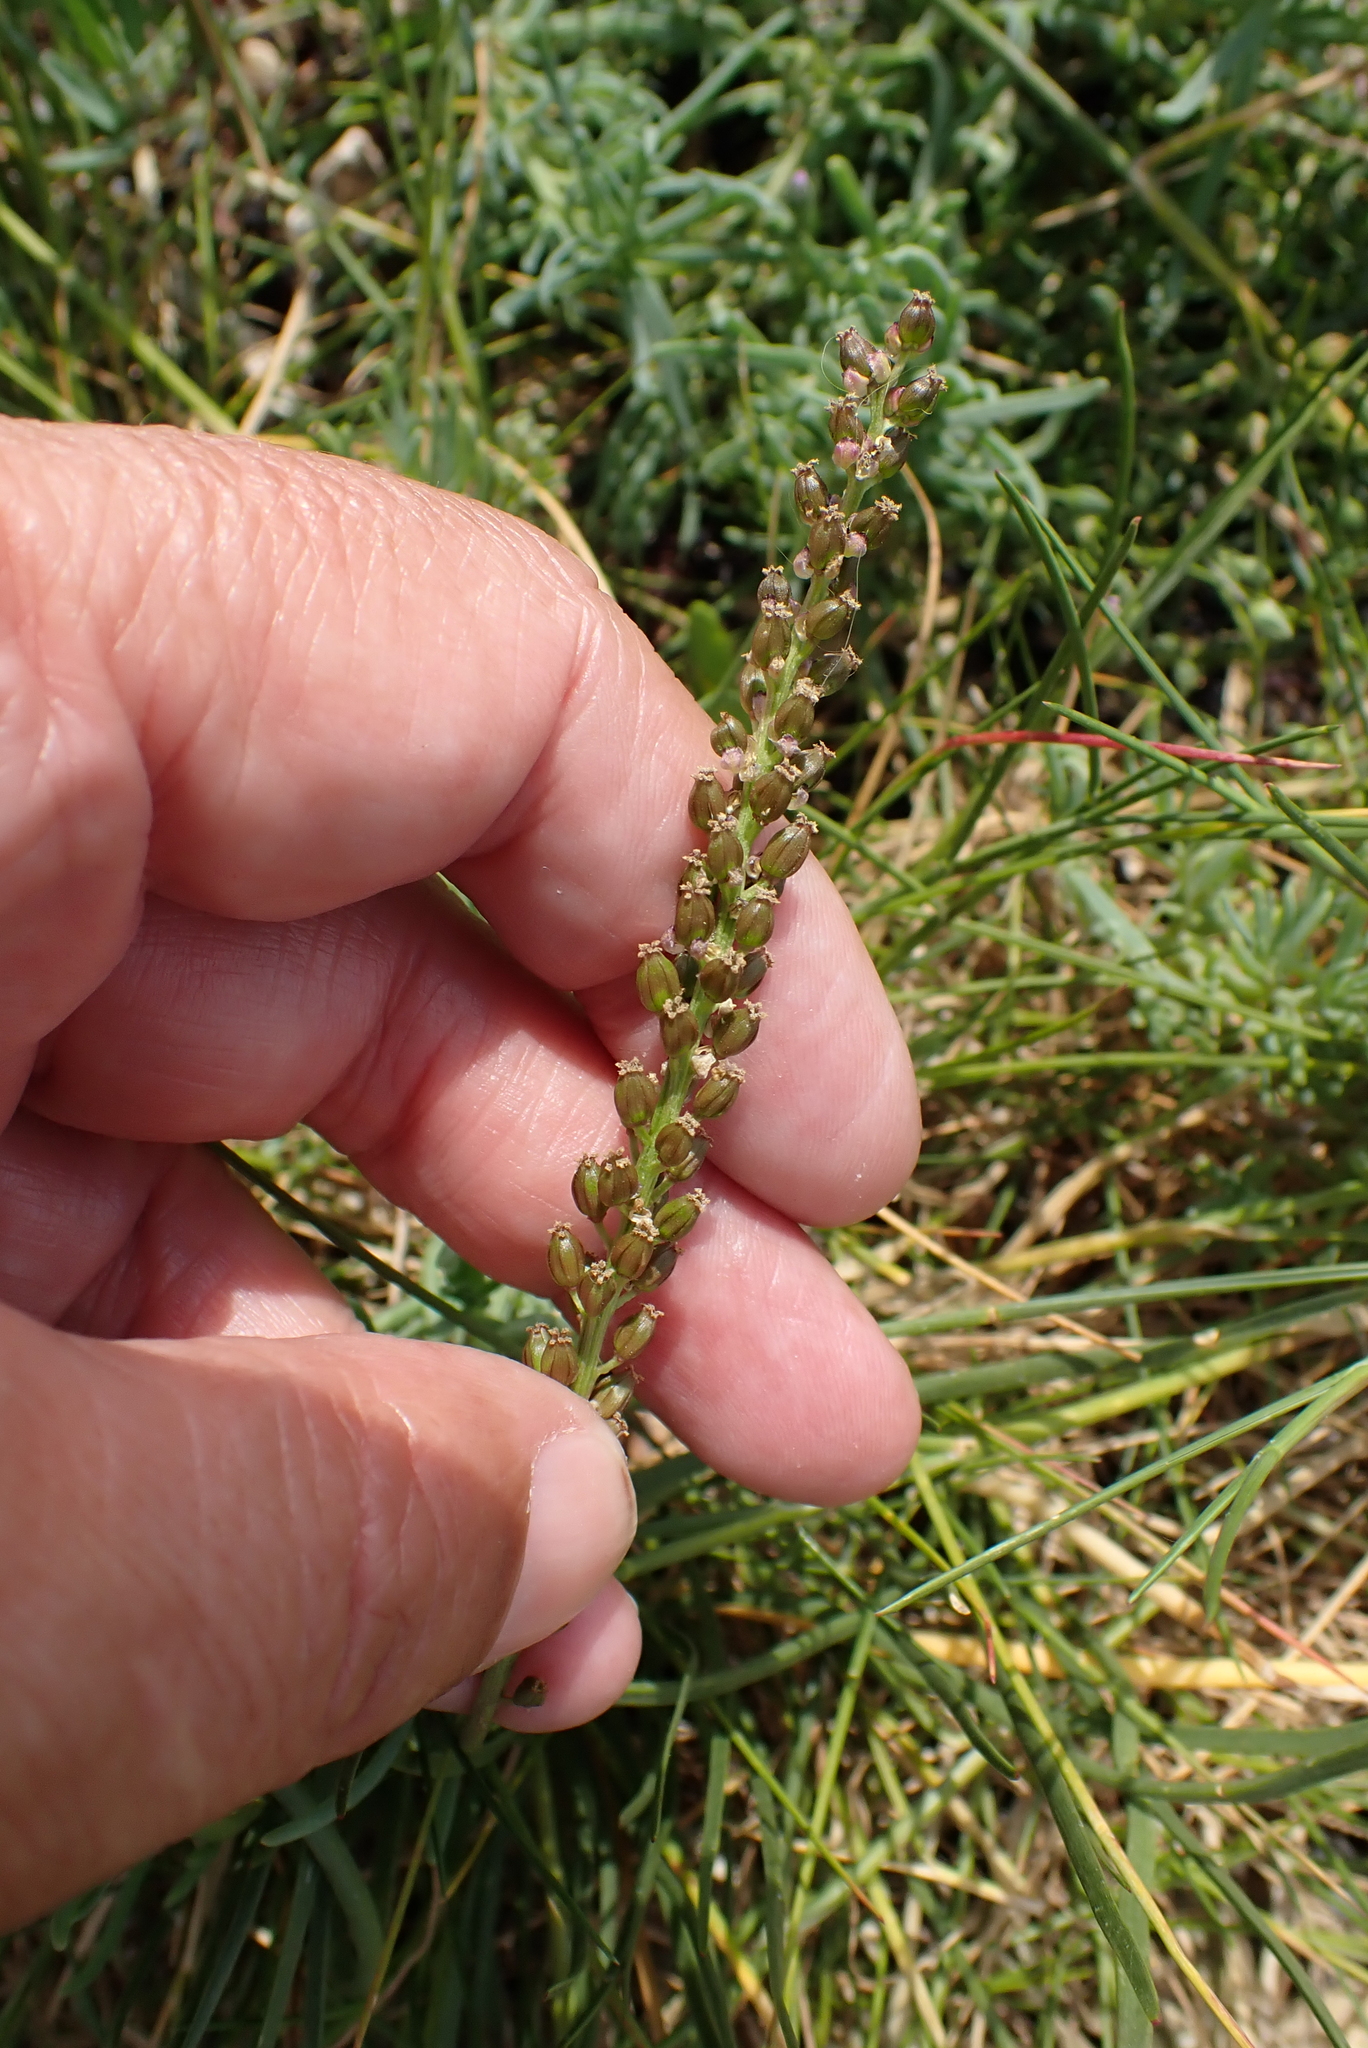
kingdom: Plantae
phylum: Tracheophyta
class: Liliopsida
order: Alismatales
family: Juncaginaceae
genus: Triglochin
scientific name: Triglochin maritima
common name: Sea arrowgrass
